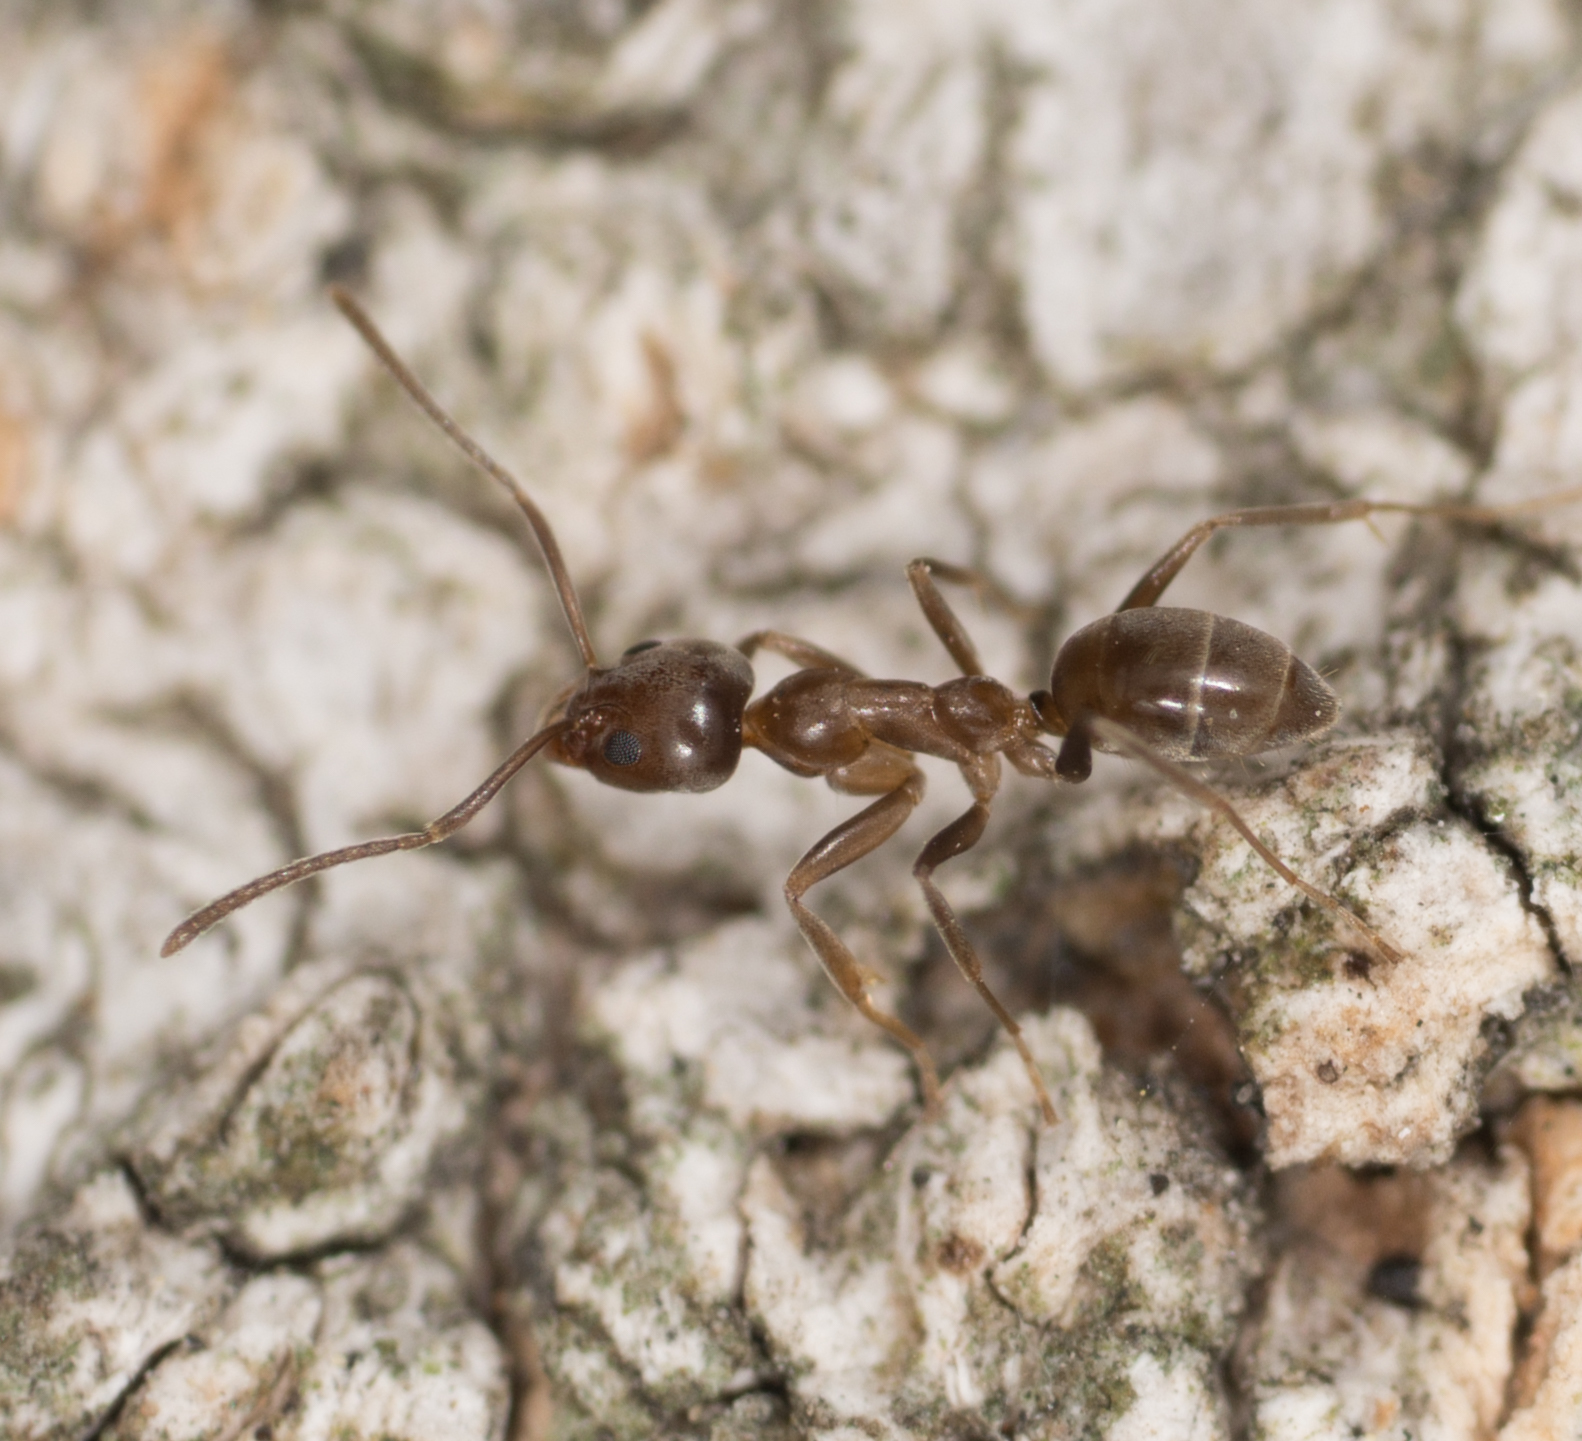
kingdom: Animalia
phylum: Arthropoda
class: Insecta
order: Hymenoptera
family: Formicidae
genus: Linepithema
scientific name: Linepithema humile
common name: Argentine ant
